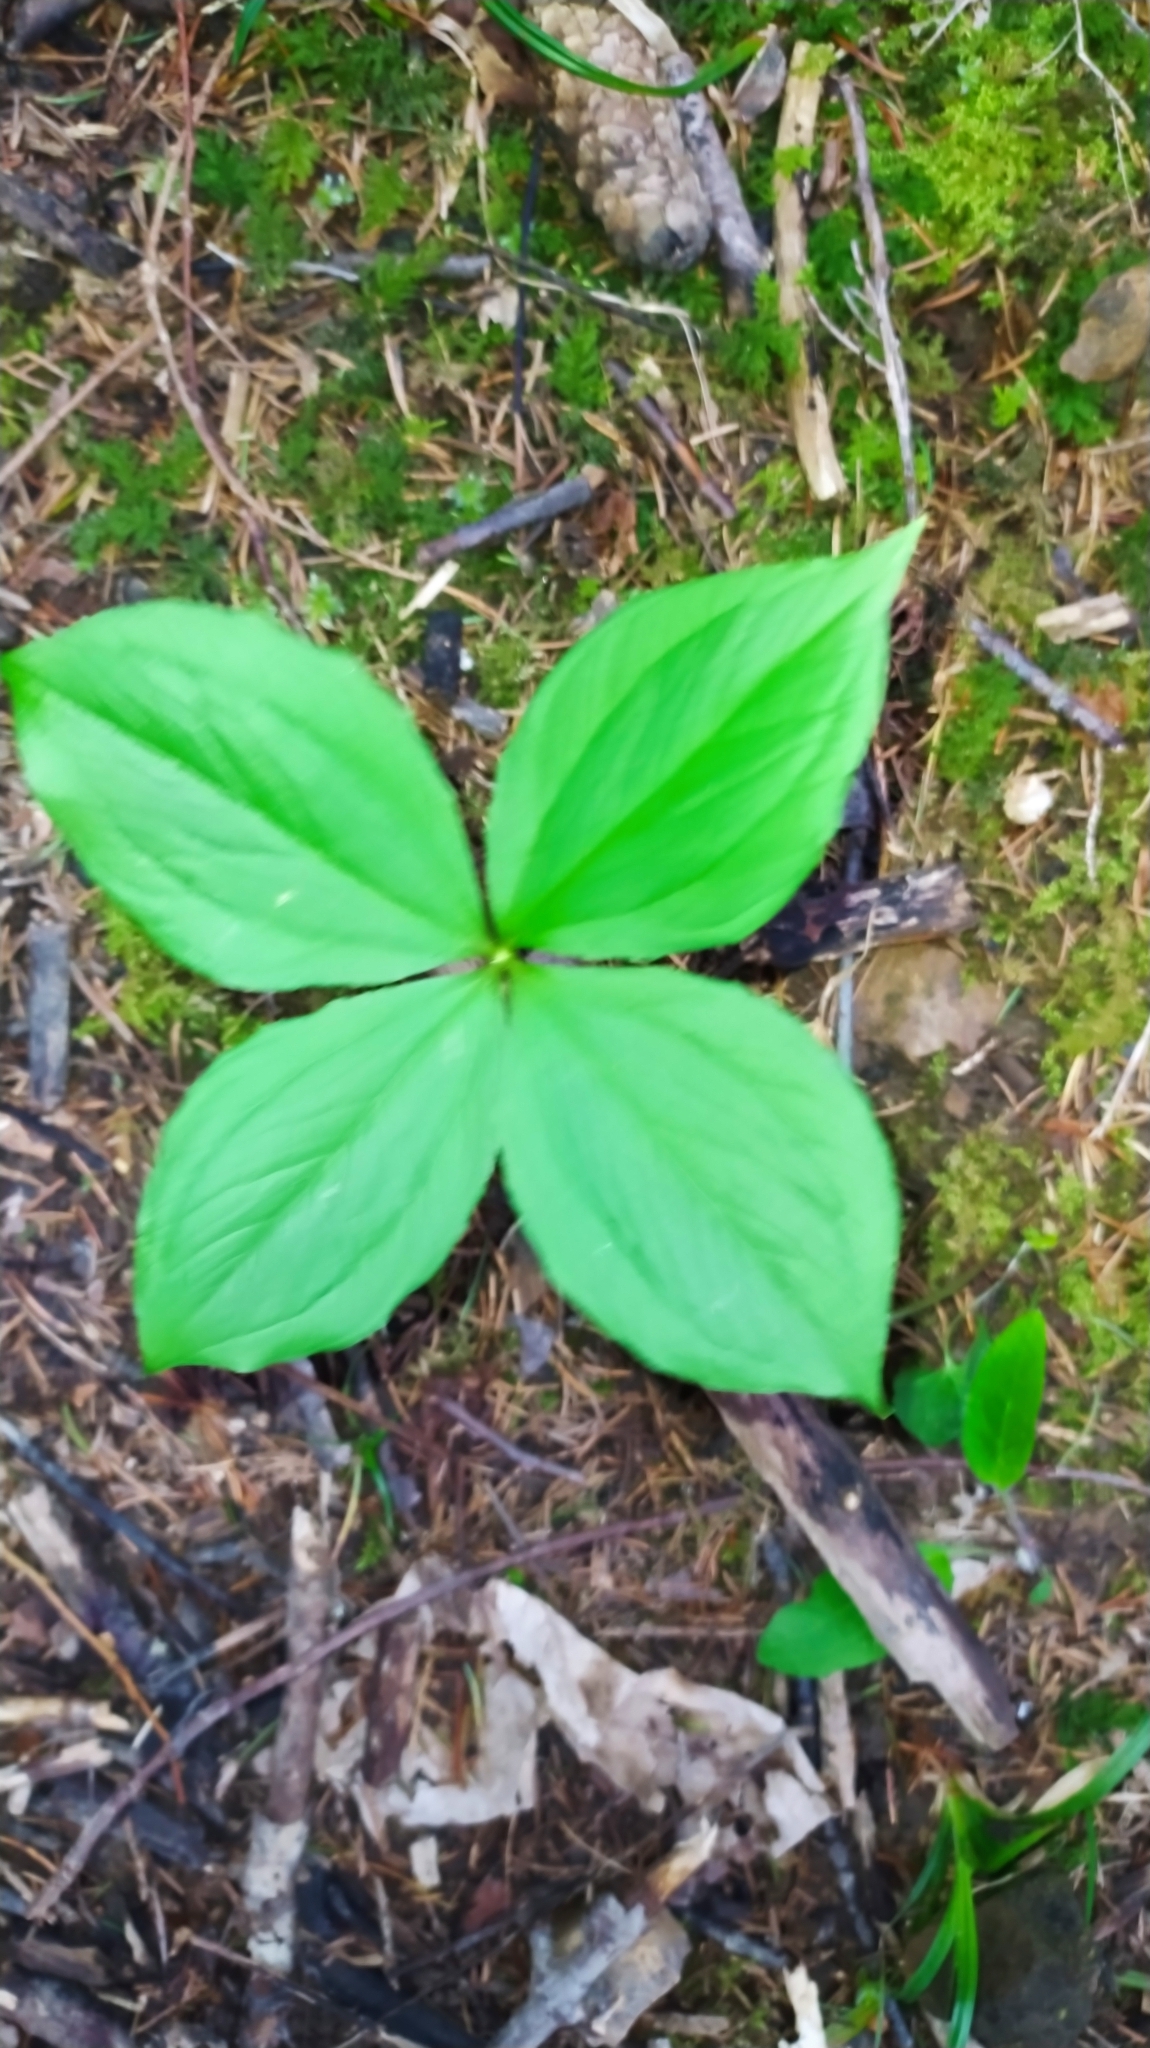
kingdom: Plantae
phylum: Tracheophyta
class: Liliopsida
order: Liliales
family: Melanthiaceae
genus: Paris
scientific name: Paris quadrifolia
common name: Herb-paris
